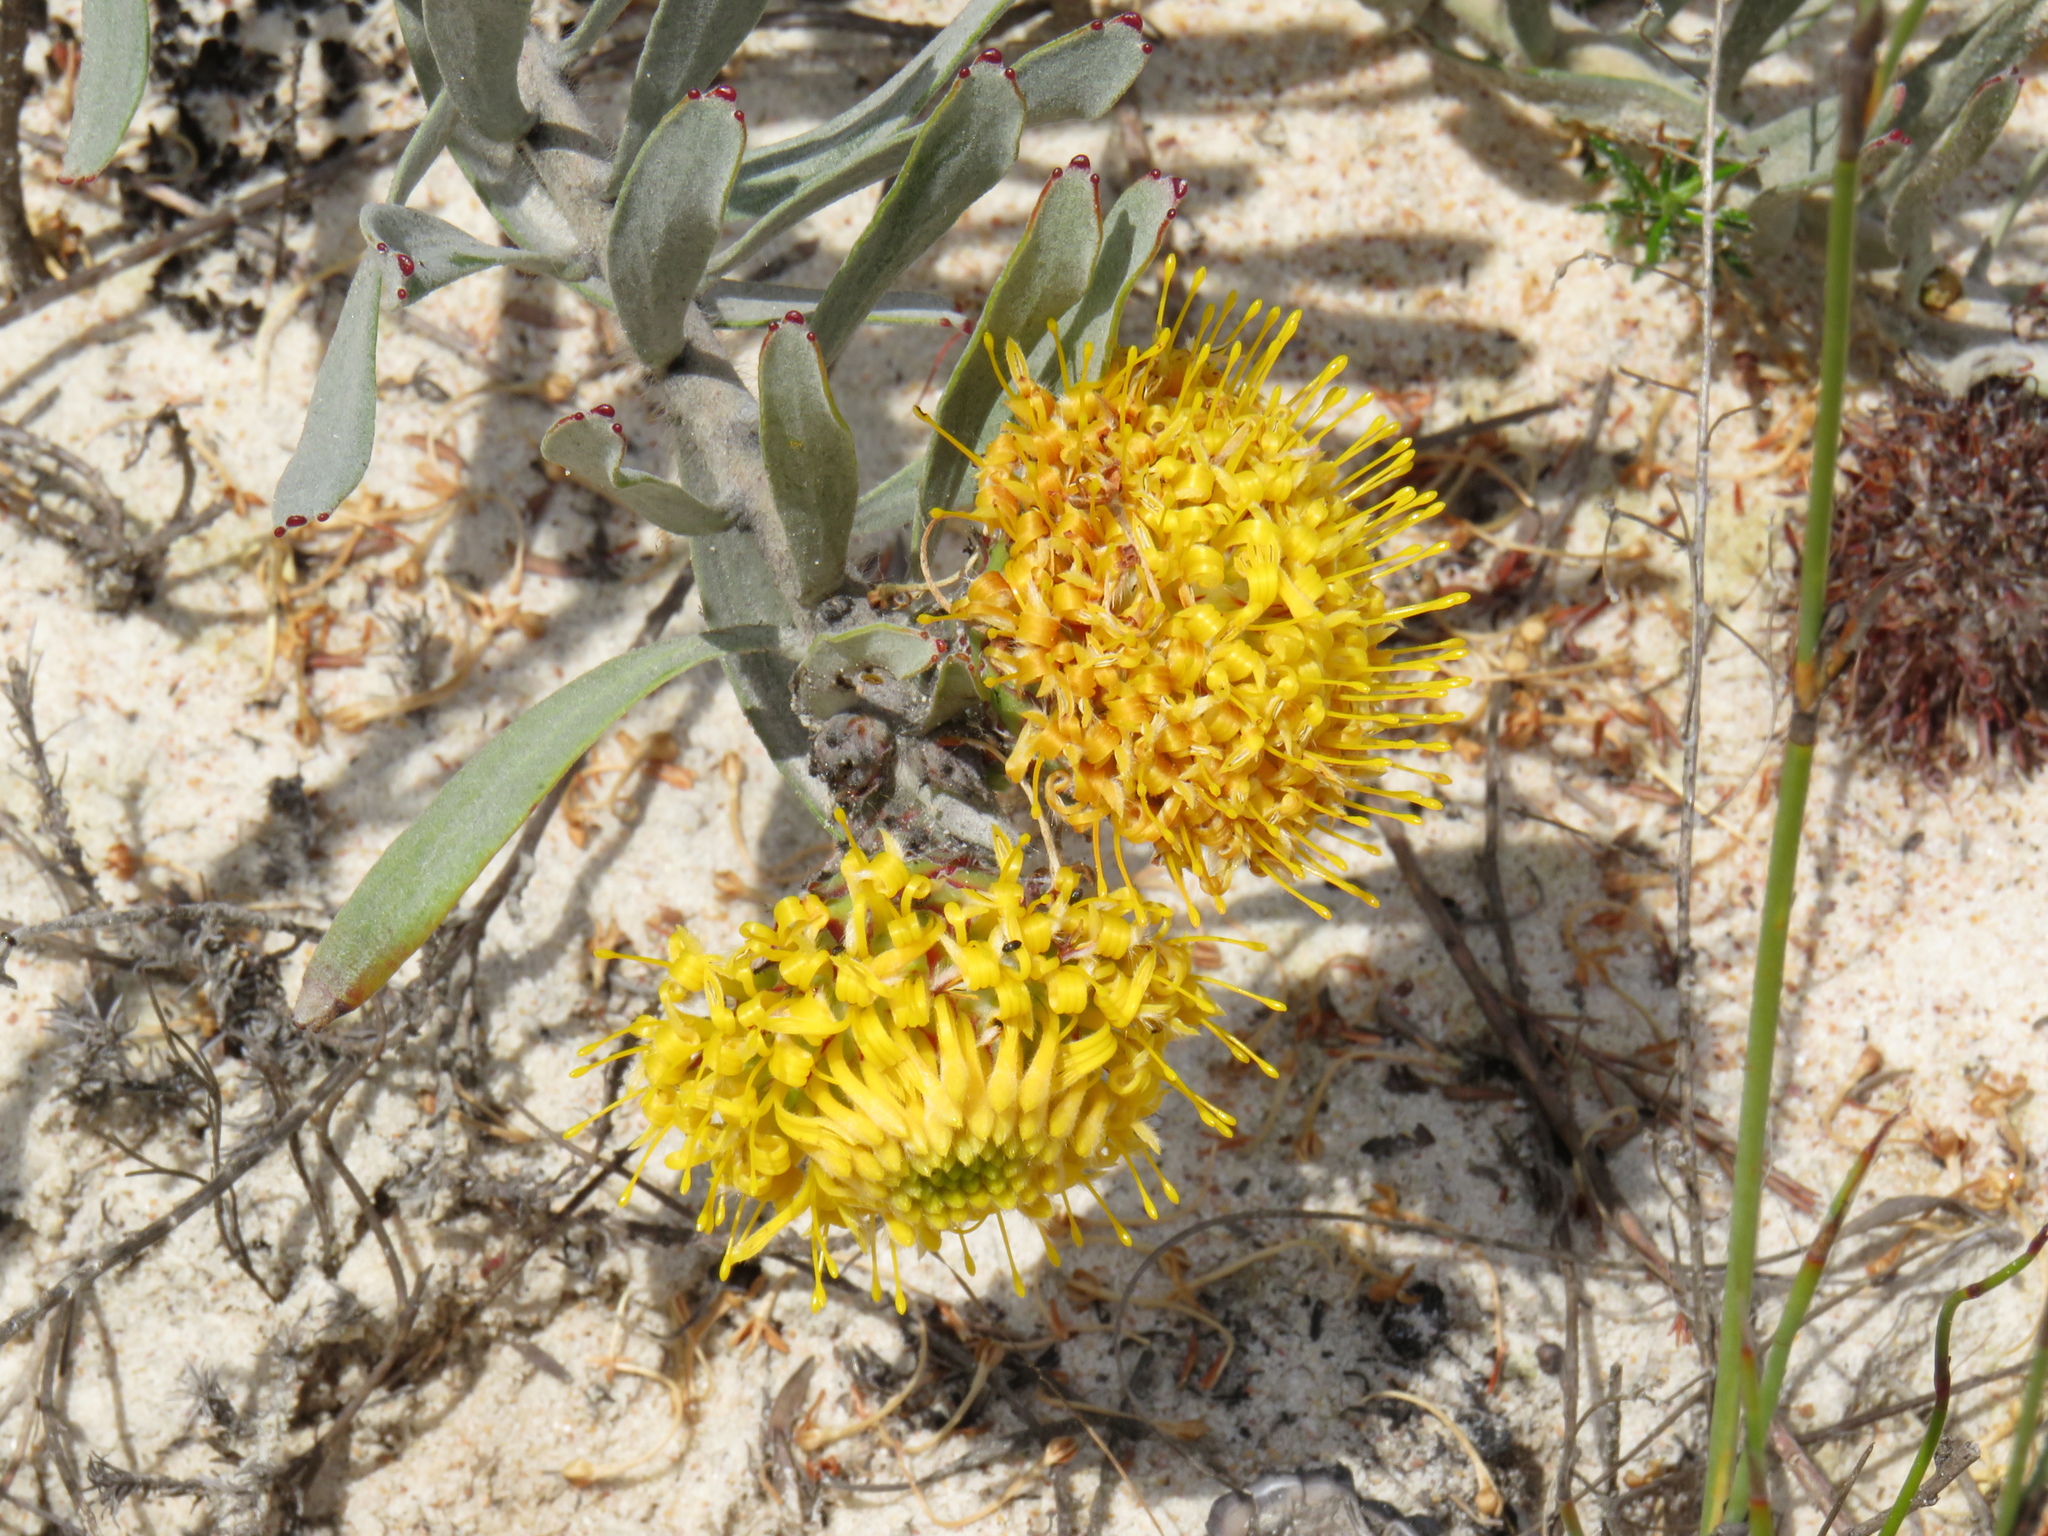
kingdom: Plantae
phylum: Tracheophyta
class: Magnoliopsida
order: Proteales
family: Proteaceae
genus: Leucospermum
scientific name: Leucospermum
